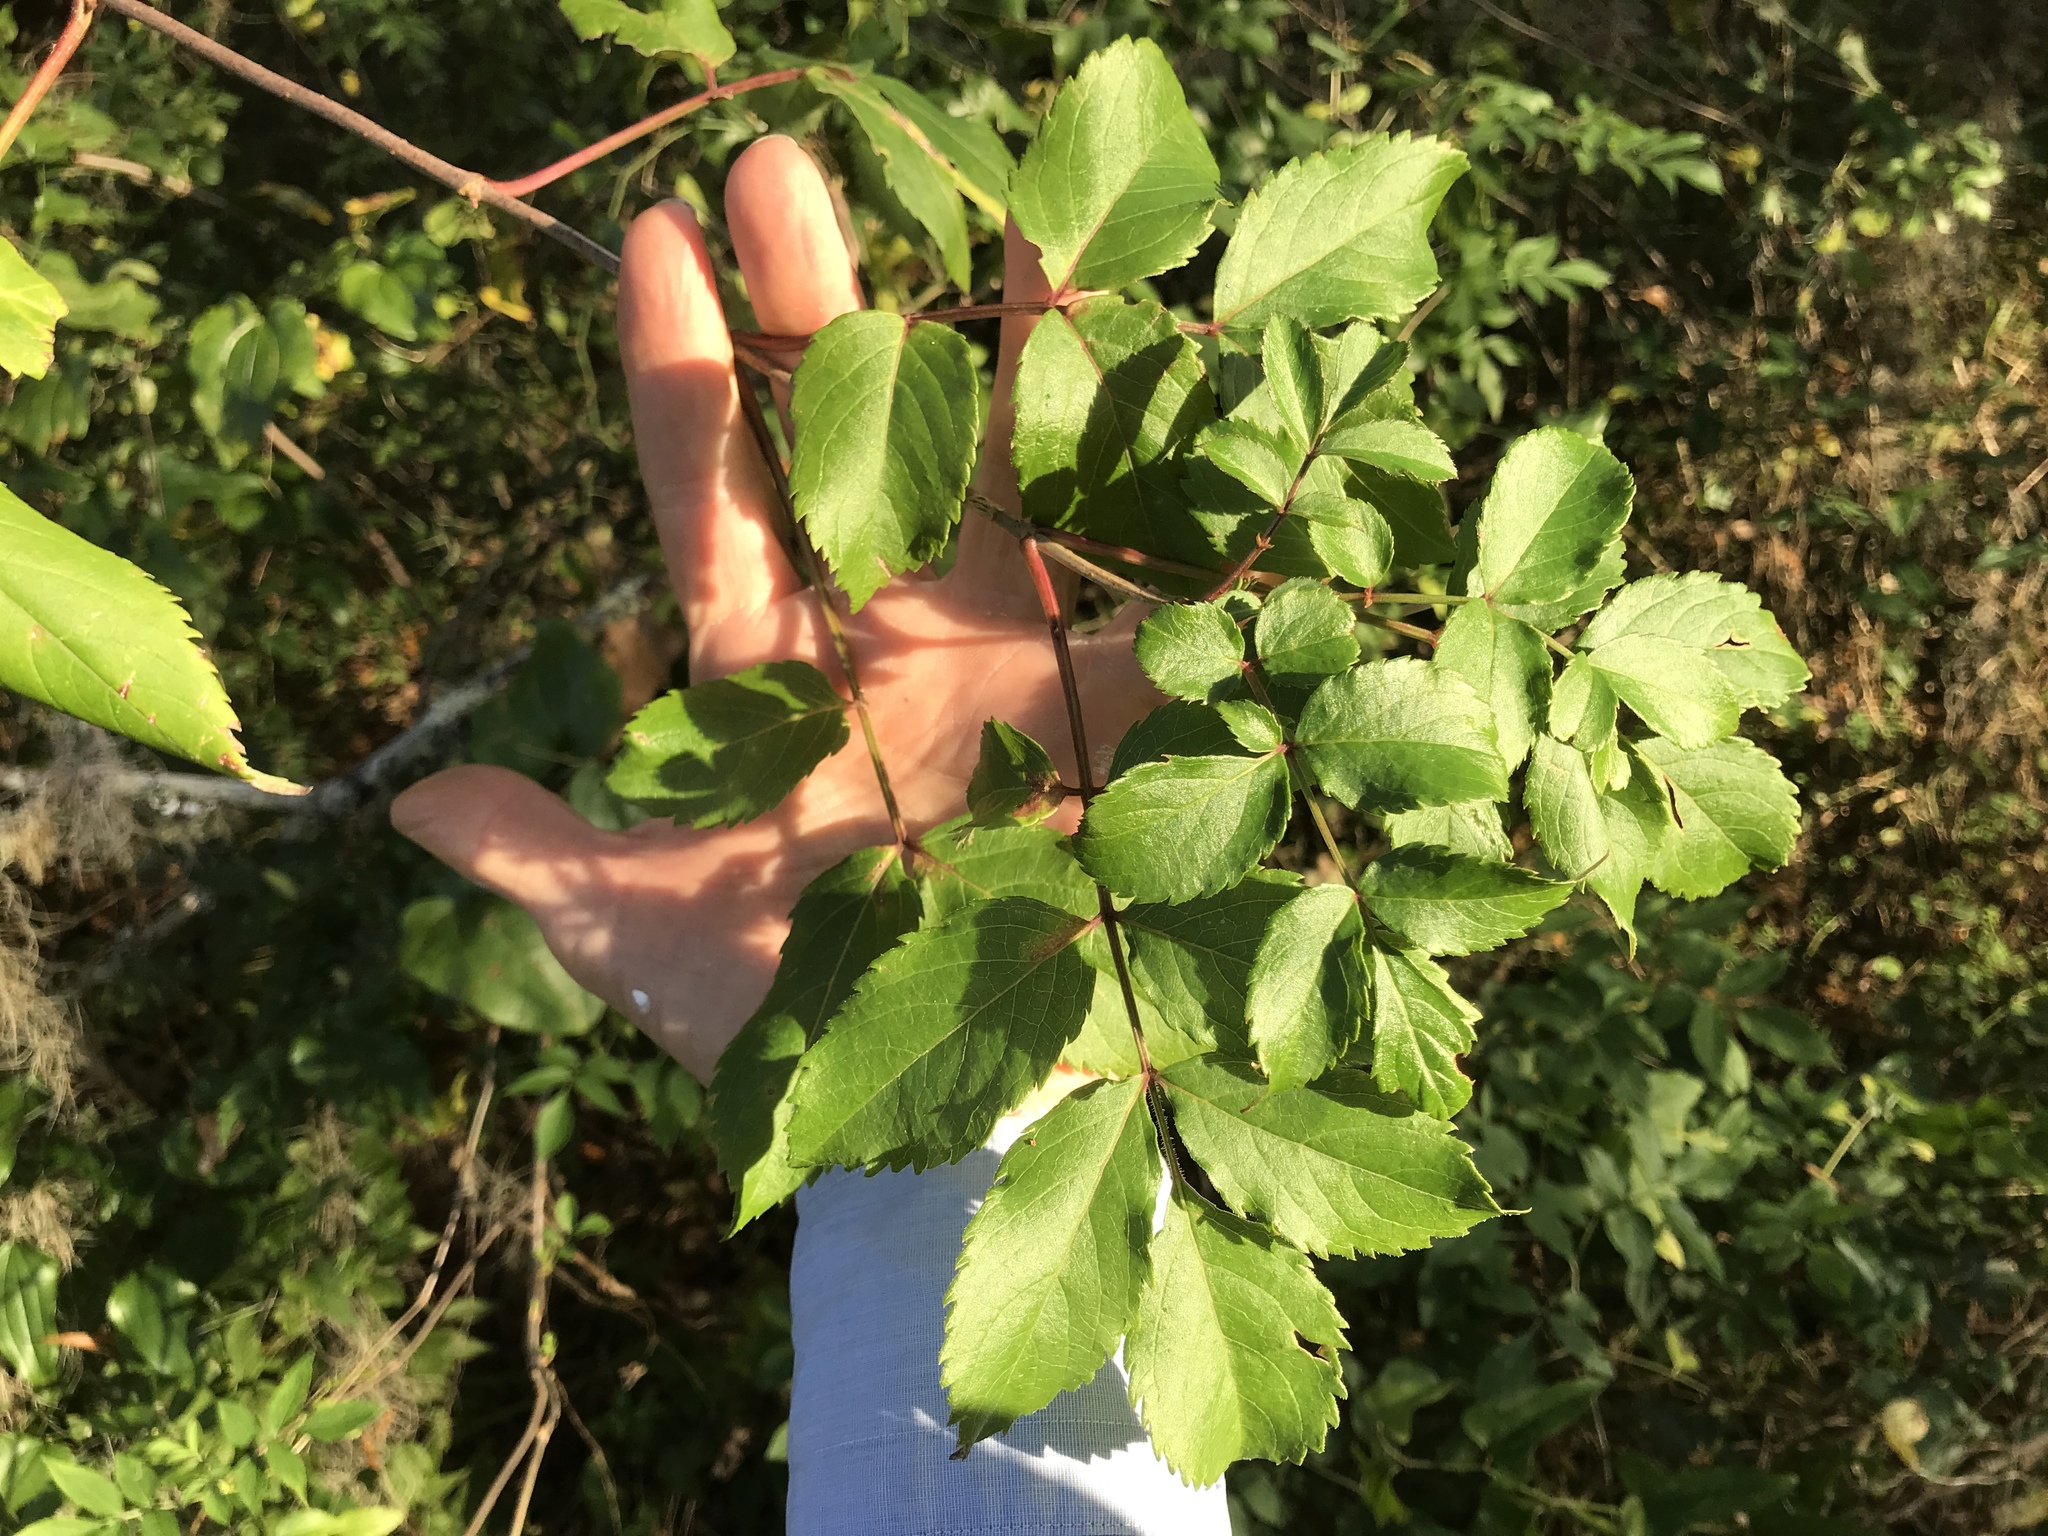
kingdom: Plantae
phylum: Tracheophyta
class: Magnoliopsida
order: Dipsacales
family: Viburnaceae
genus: Sambucus
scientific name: Sambucus canadensis
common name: American elder
